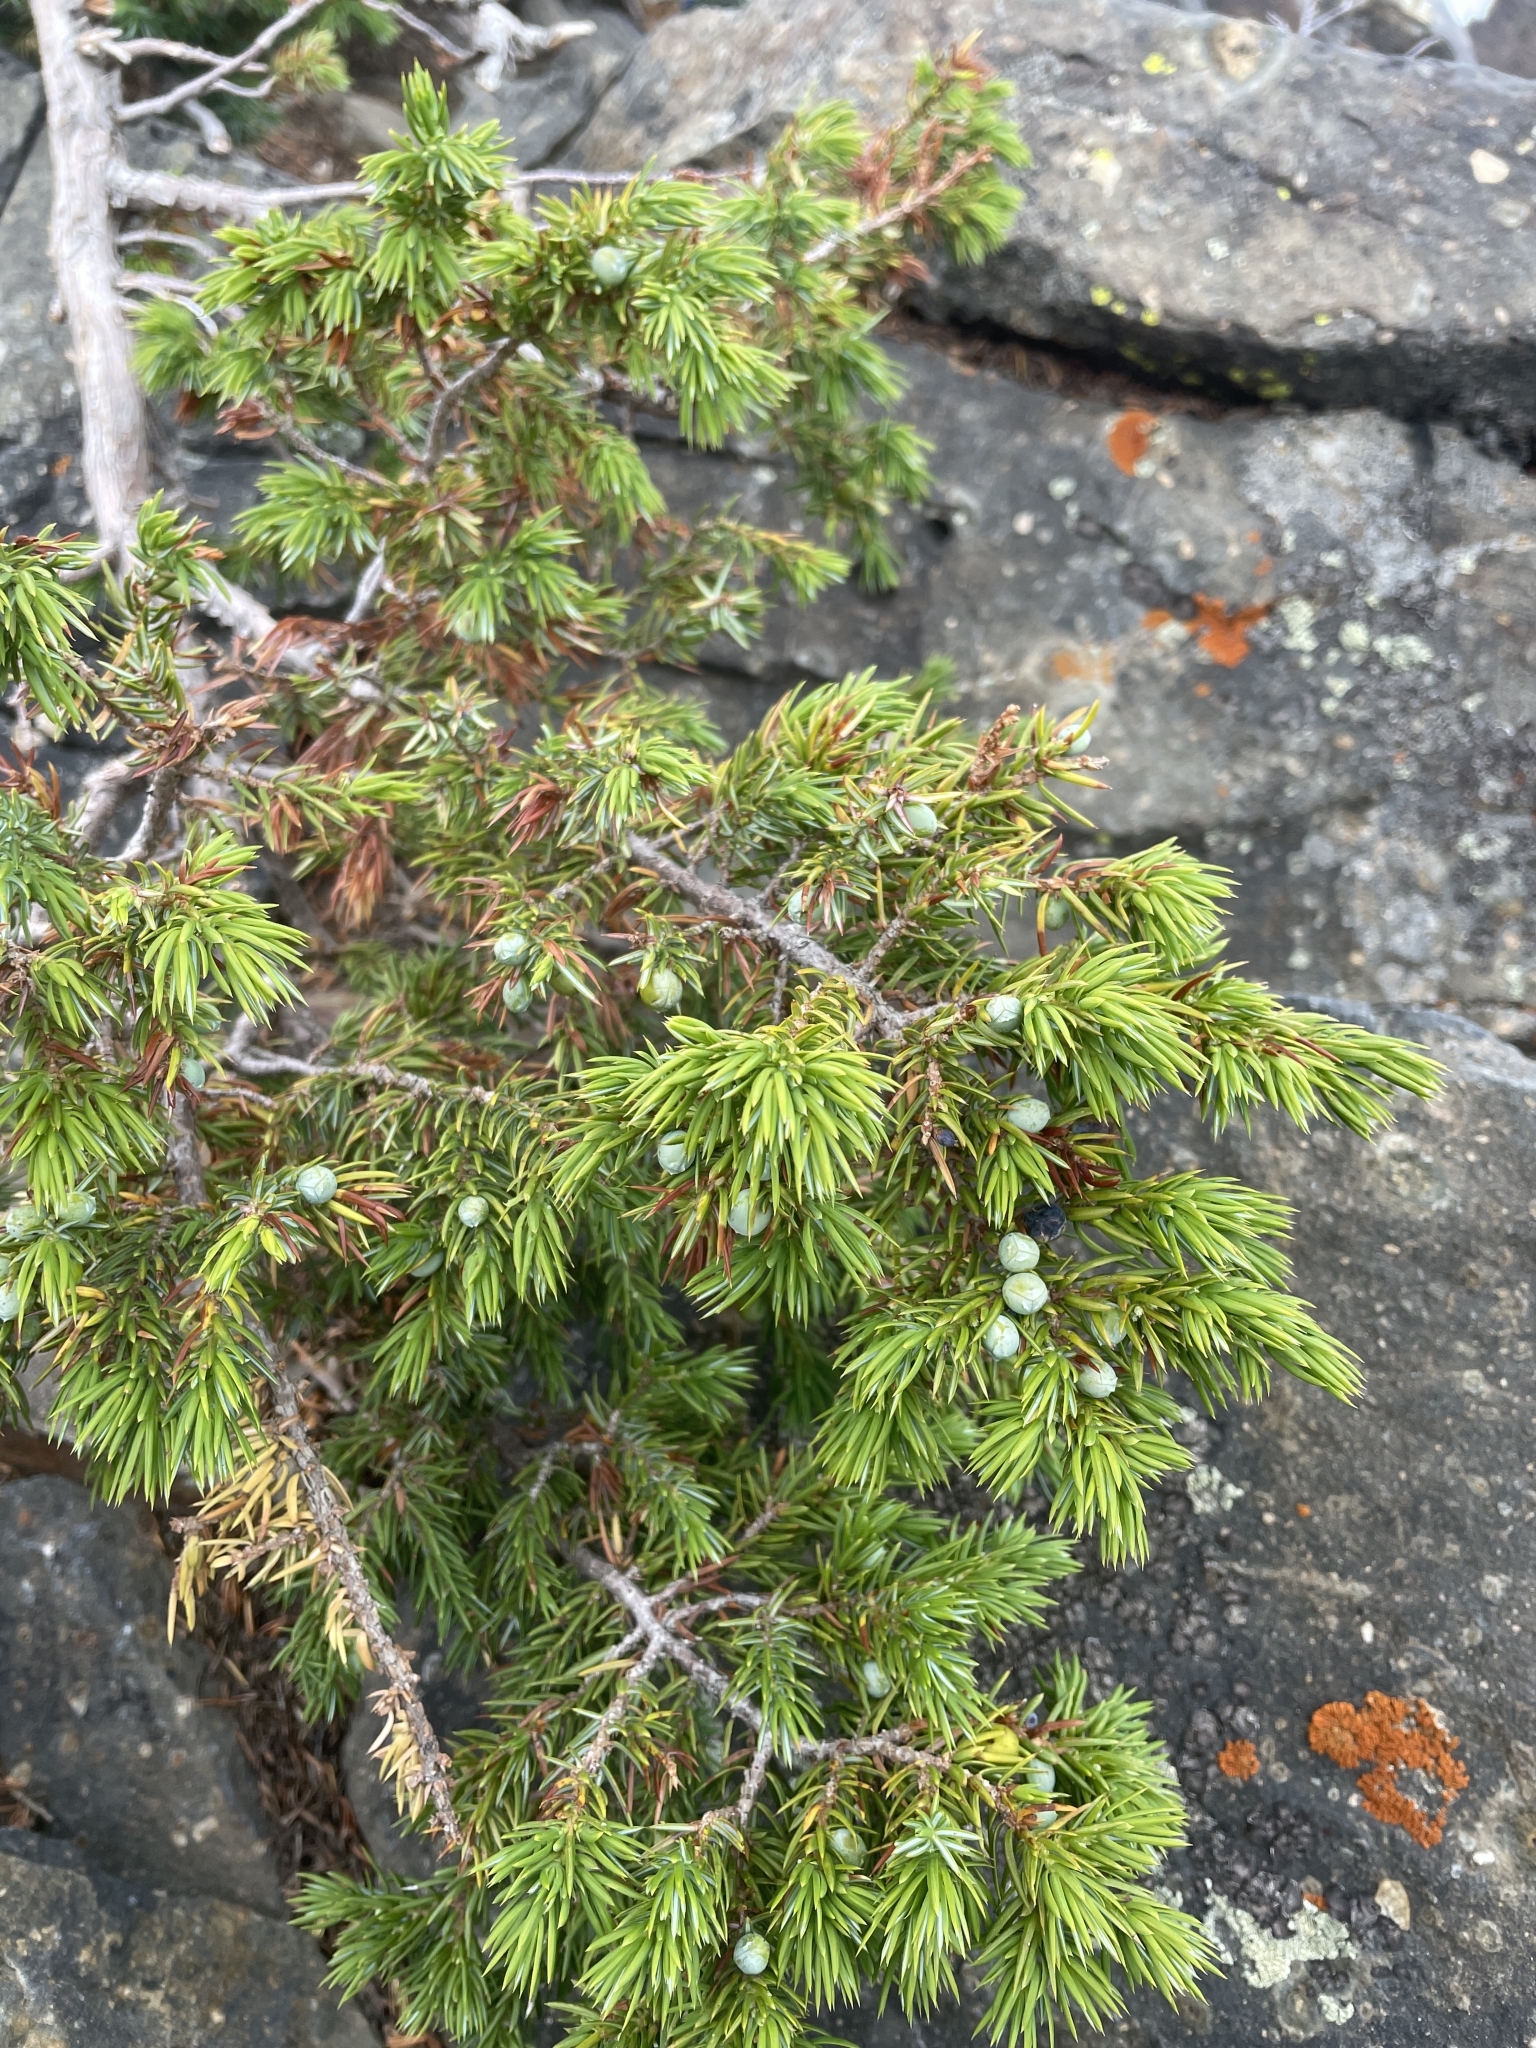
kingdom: Plantae
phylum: Tracheophyta
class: Pinopsida
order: Pinales
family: Cupressaceae
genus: Juniperus
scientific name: Juniperus communis
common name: Common juniper
